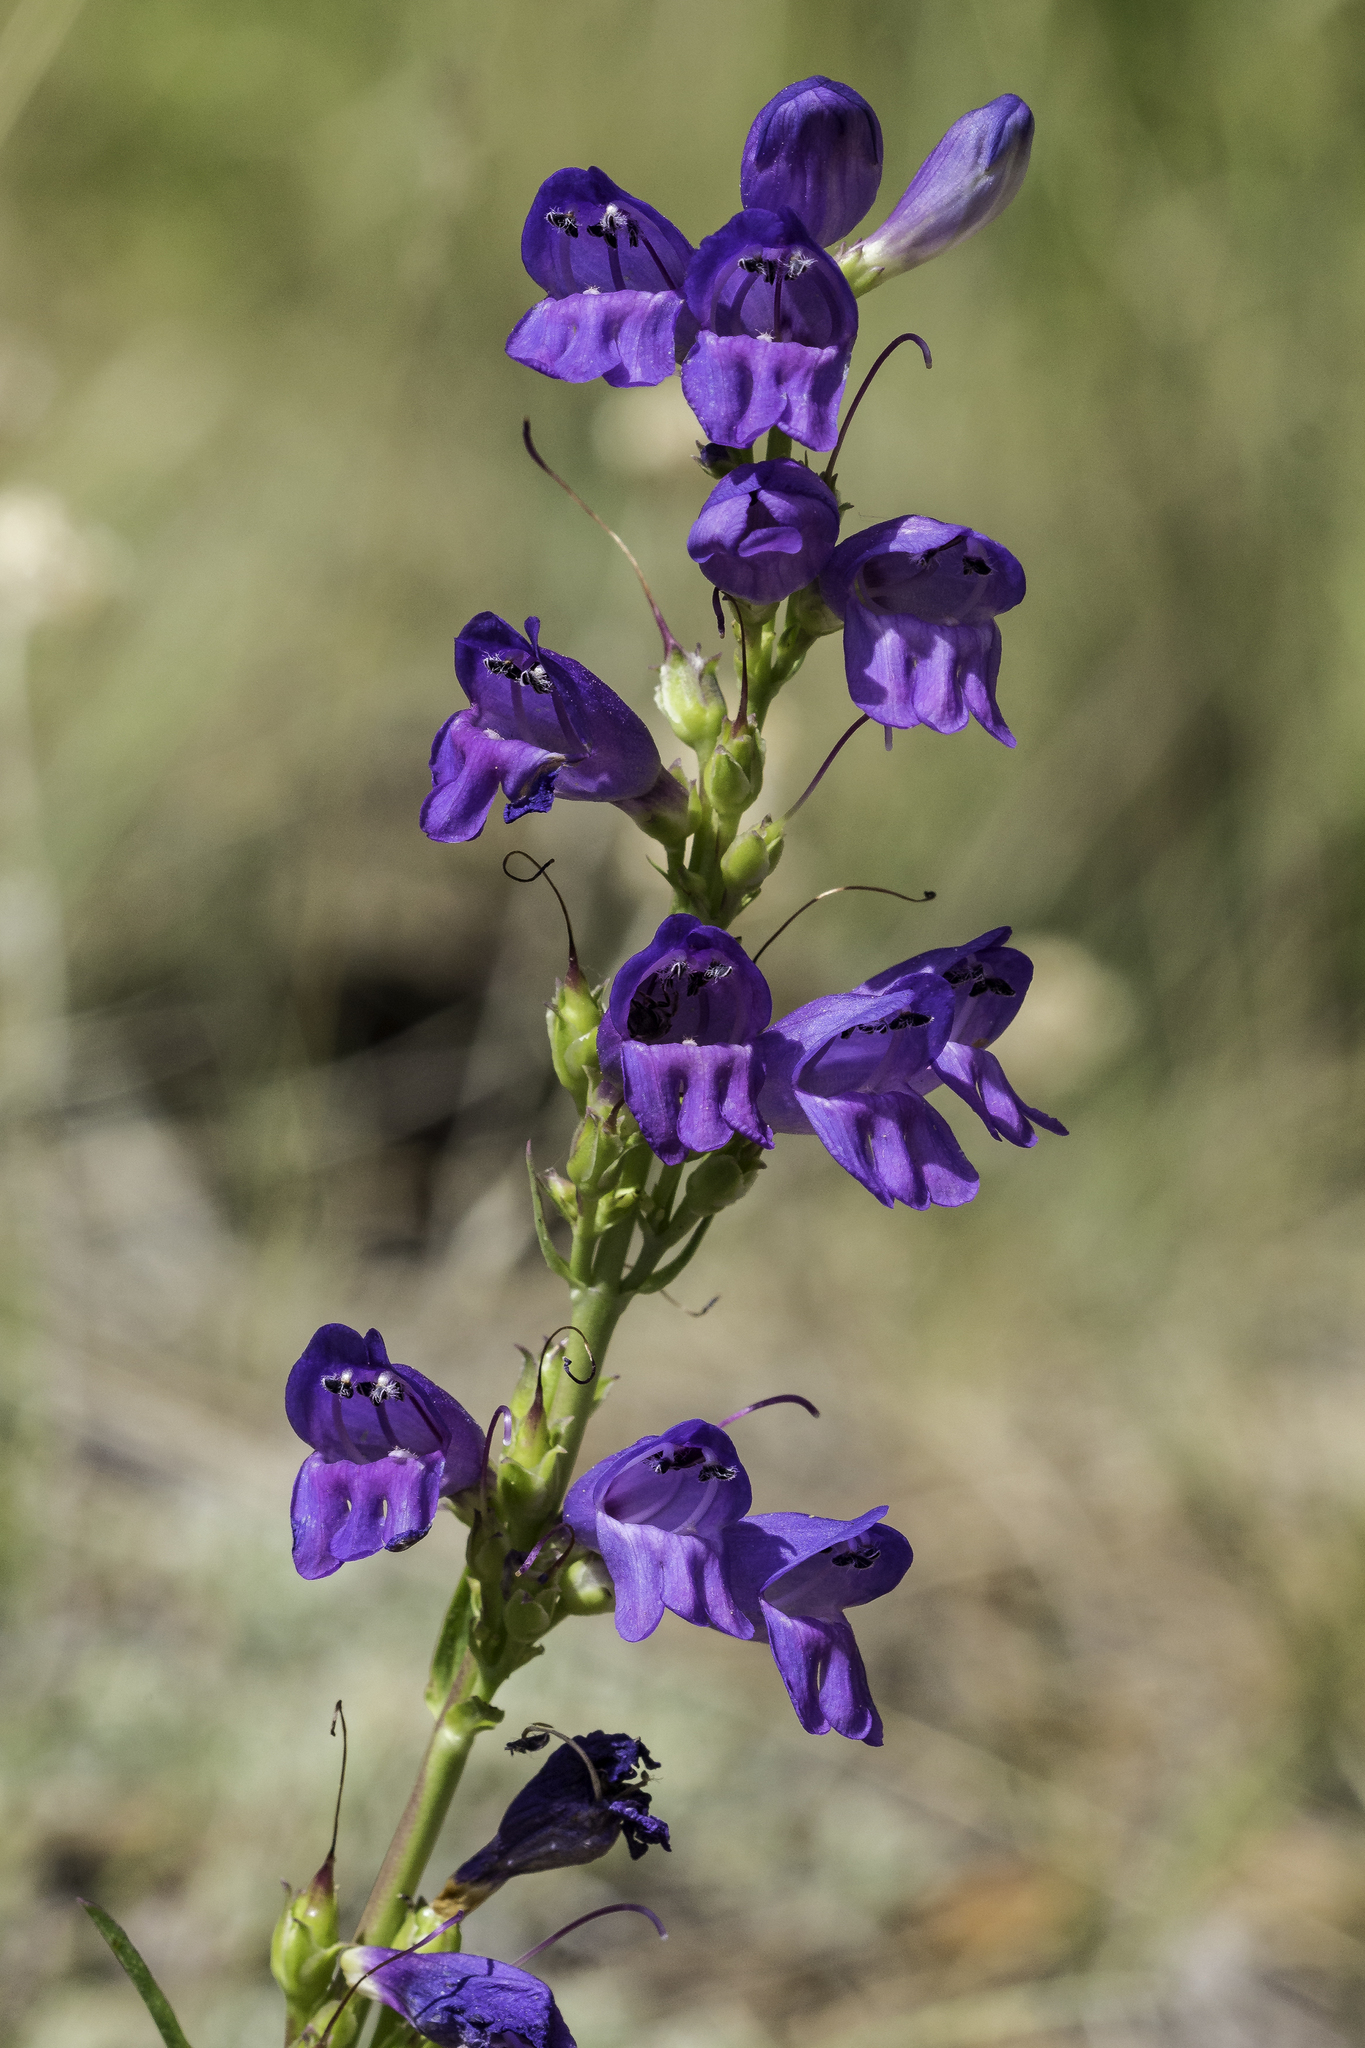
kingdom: Plantae
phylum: Tracheophyta
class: Magnoliopsida
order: Lamiales
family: Plantaginaceae
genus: Penstemon
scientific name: Penstemon strictus
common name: Rocky mountain penstemon
